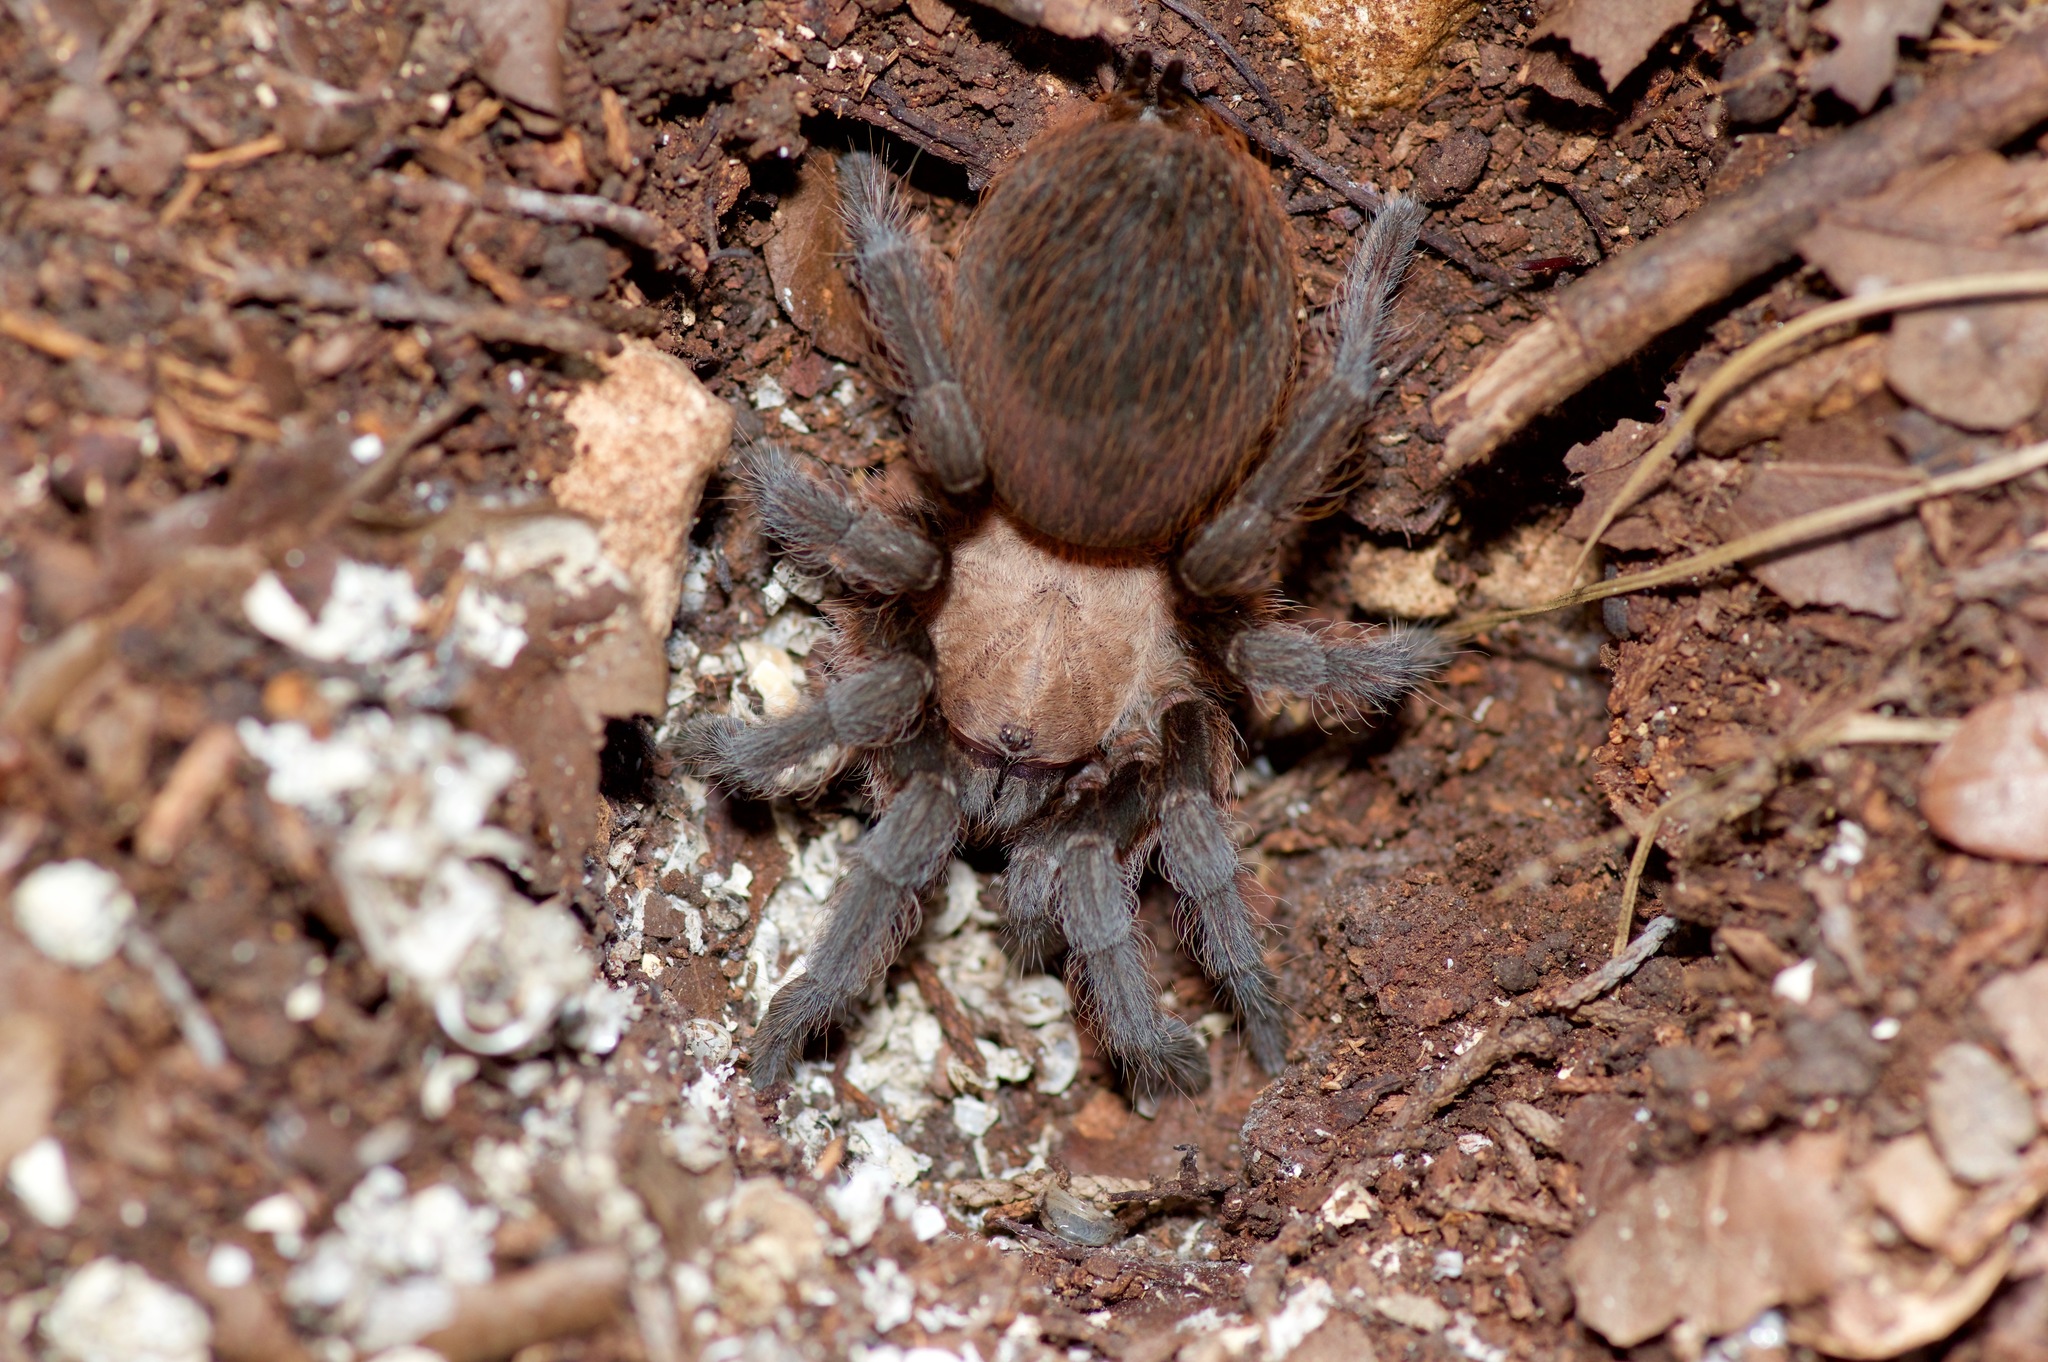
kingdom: Animalia
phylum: Arthropoda
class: Arachnida
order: Araneae
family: Theraphosidae
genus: Aphonopelma
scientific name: Aphonopelma hentzi
